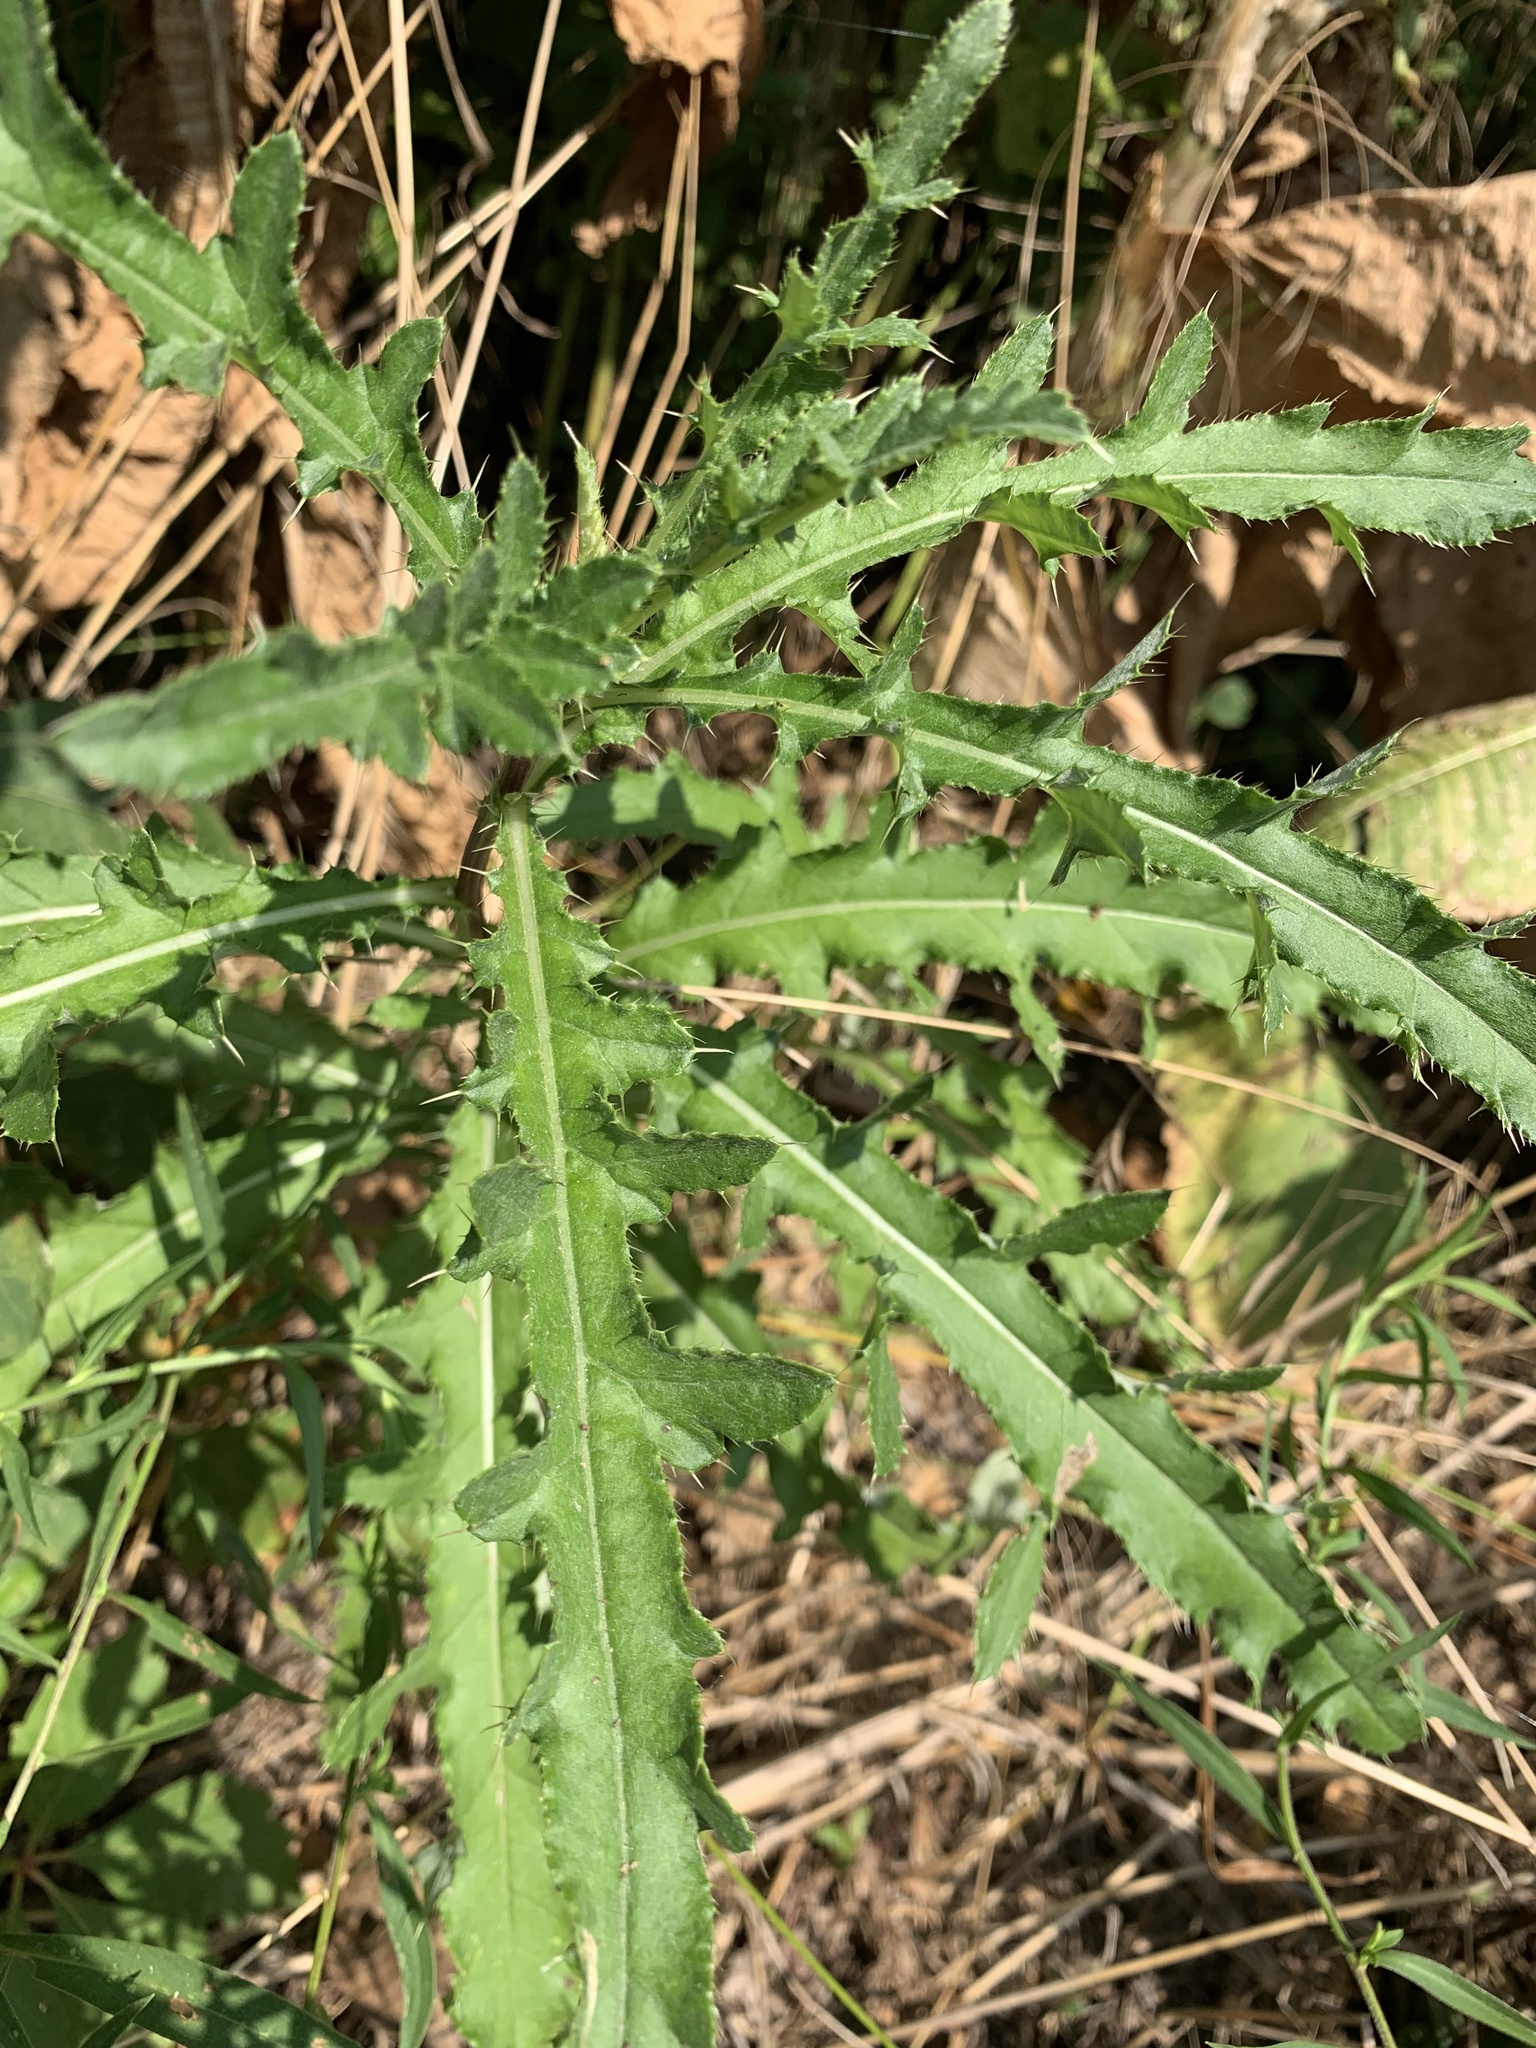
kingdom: Plantae
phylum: Tracheophyta
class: Magnoliopsida
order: Asterales
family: Asteraceae
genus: Cirsium
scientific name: Cirsium arvense
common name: Creeping thistle
